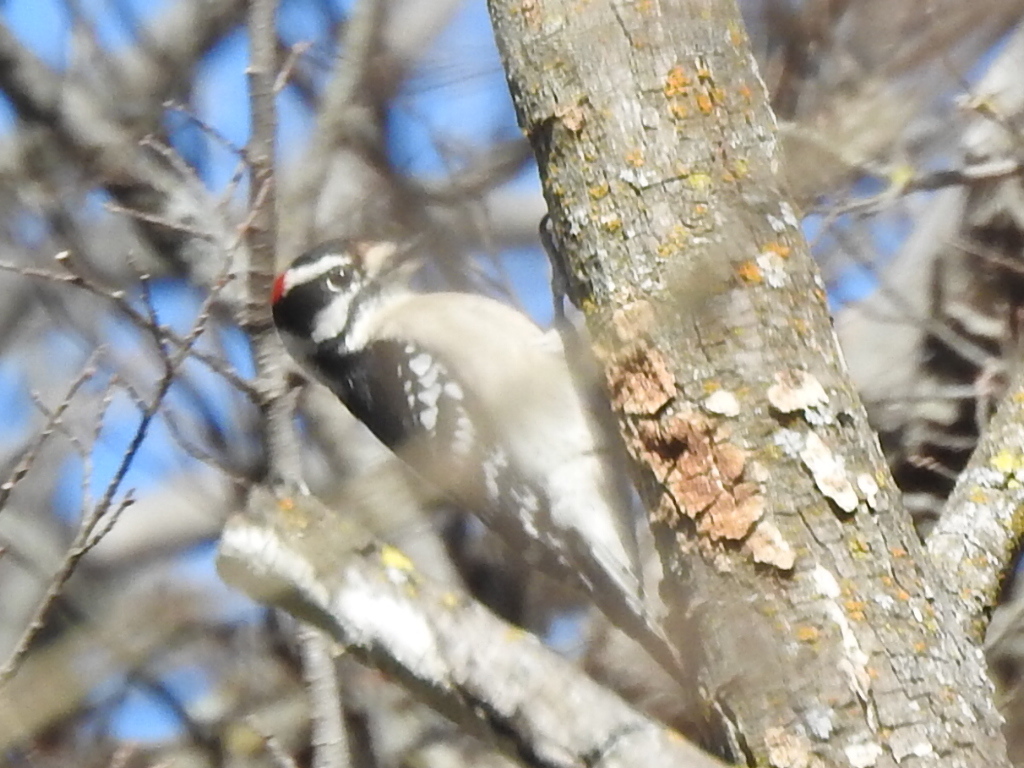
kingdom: Animalia
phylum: Chordata
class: Aves
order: Piciformes
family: Picidae
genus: Dryobates
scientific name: Dryobates pubescens
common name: Downy woodpecker
